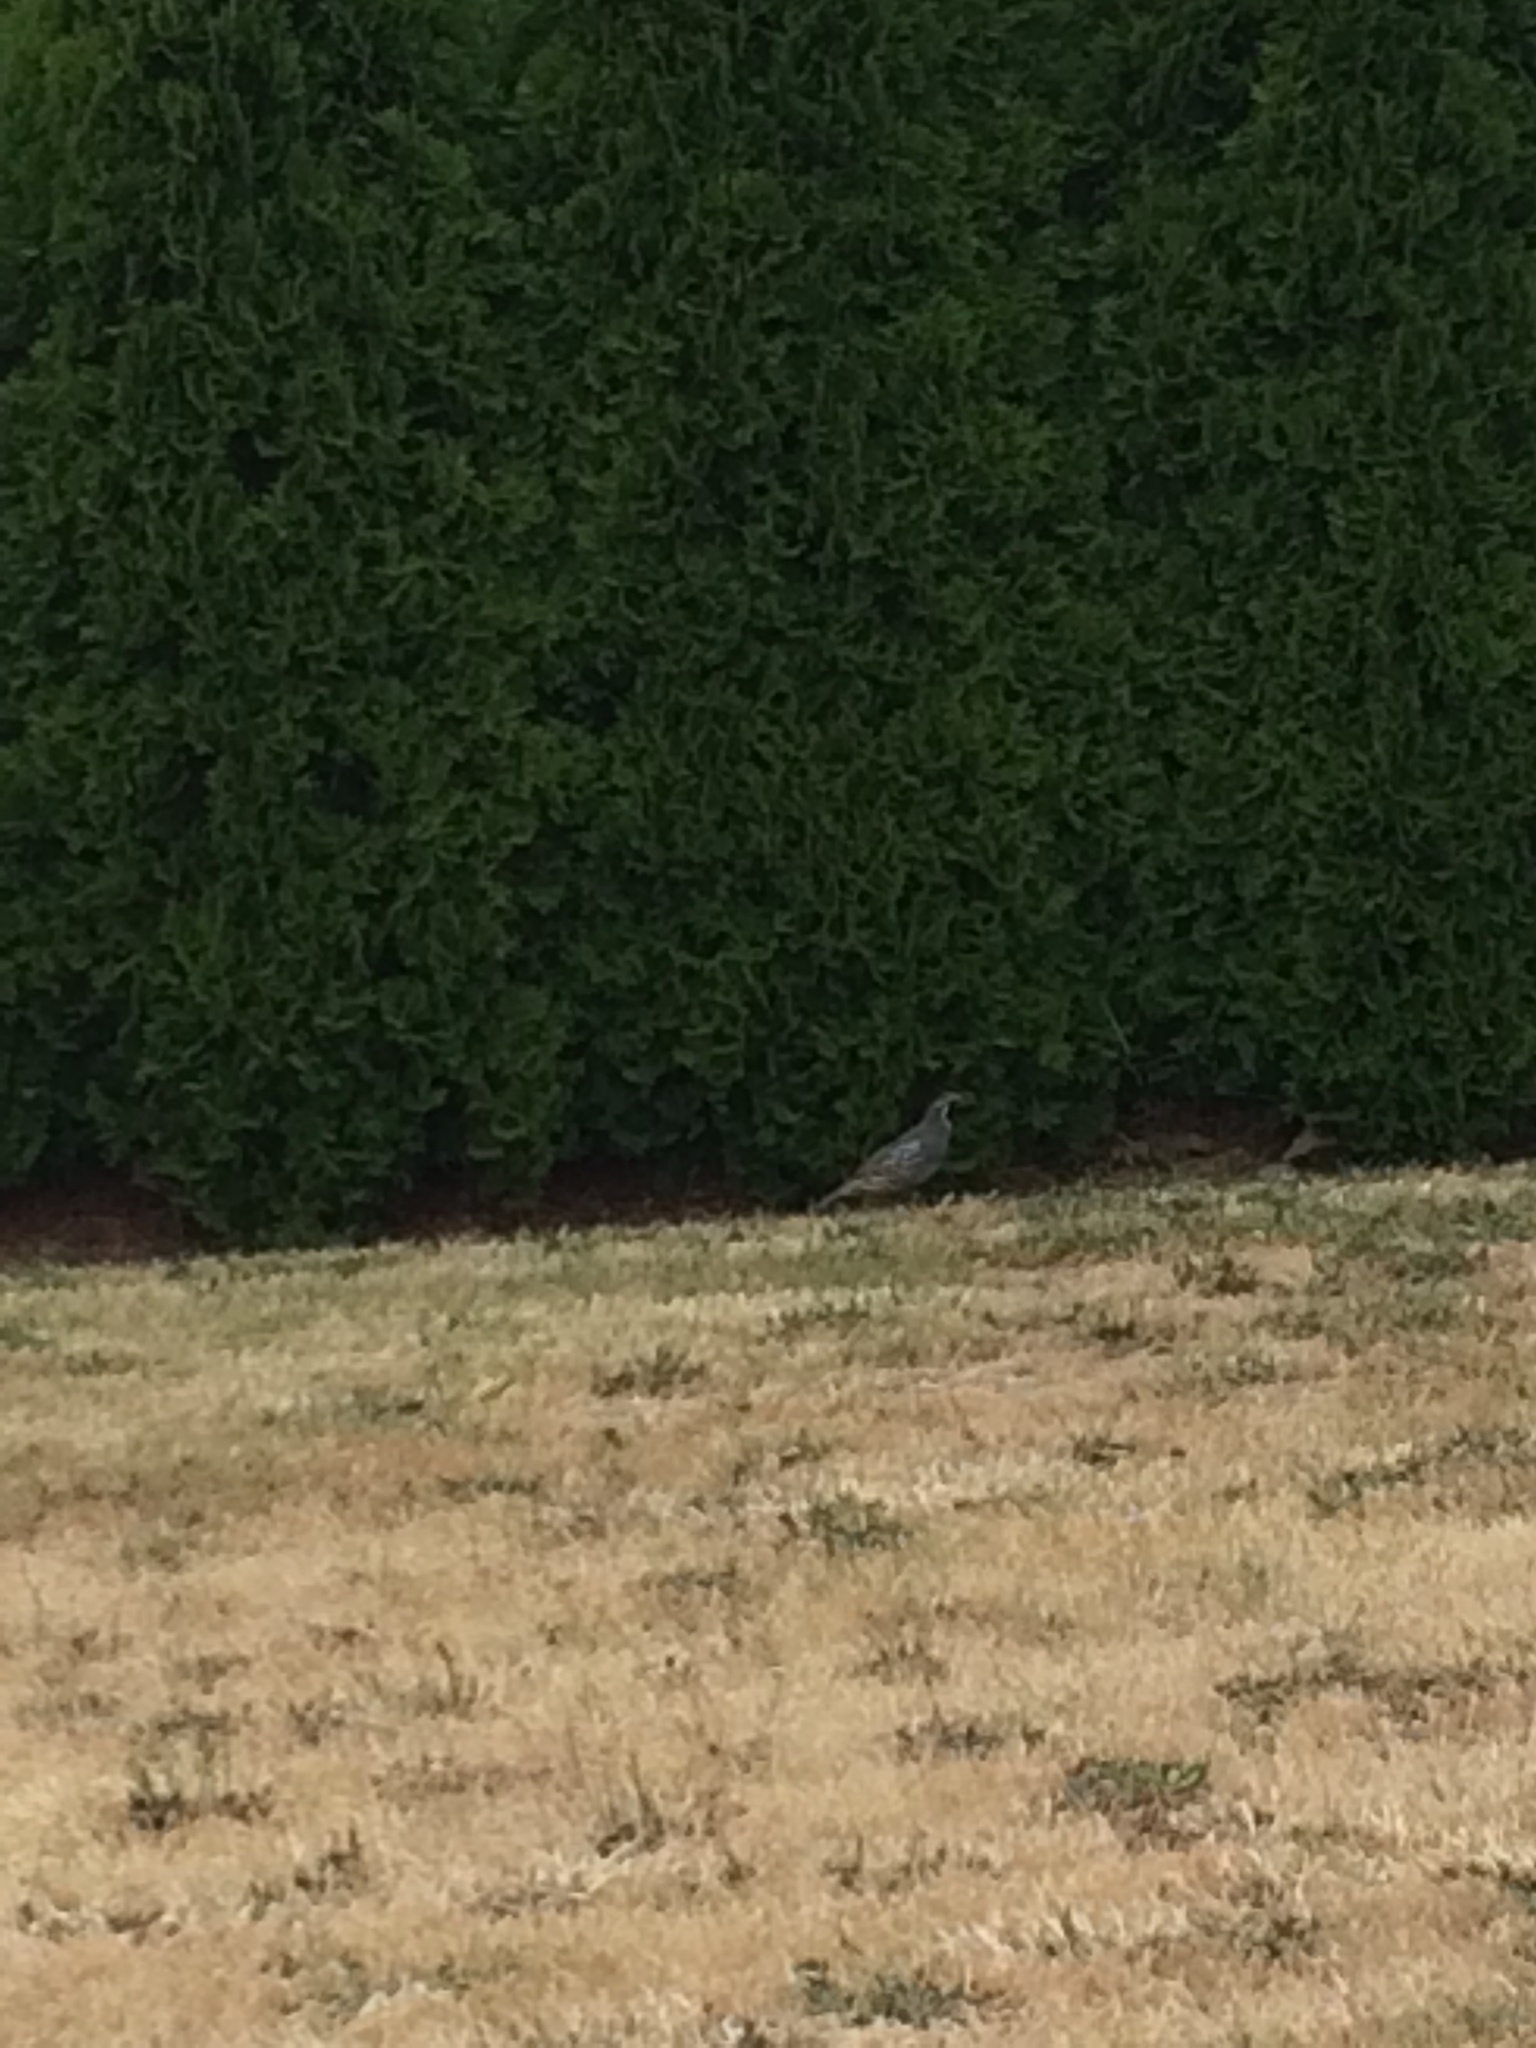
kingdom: Animalia
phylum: Chordata
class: Aves
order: Galliformes
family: Odontophoridae
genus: Callipepla
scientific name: Callipepla californica
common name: California quail
